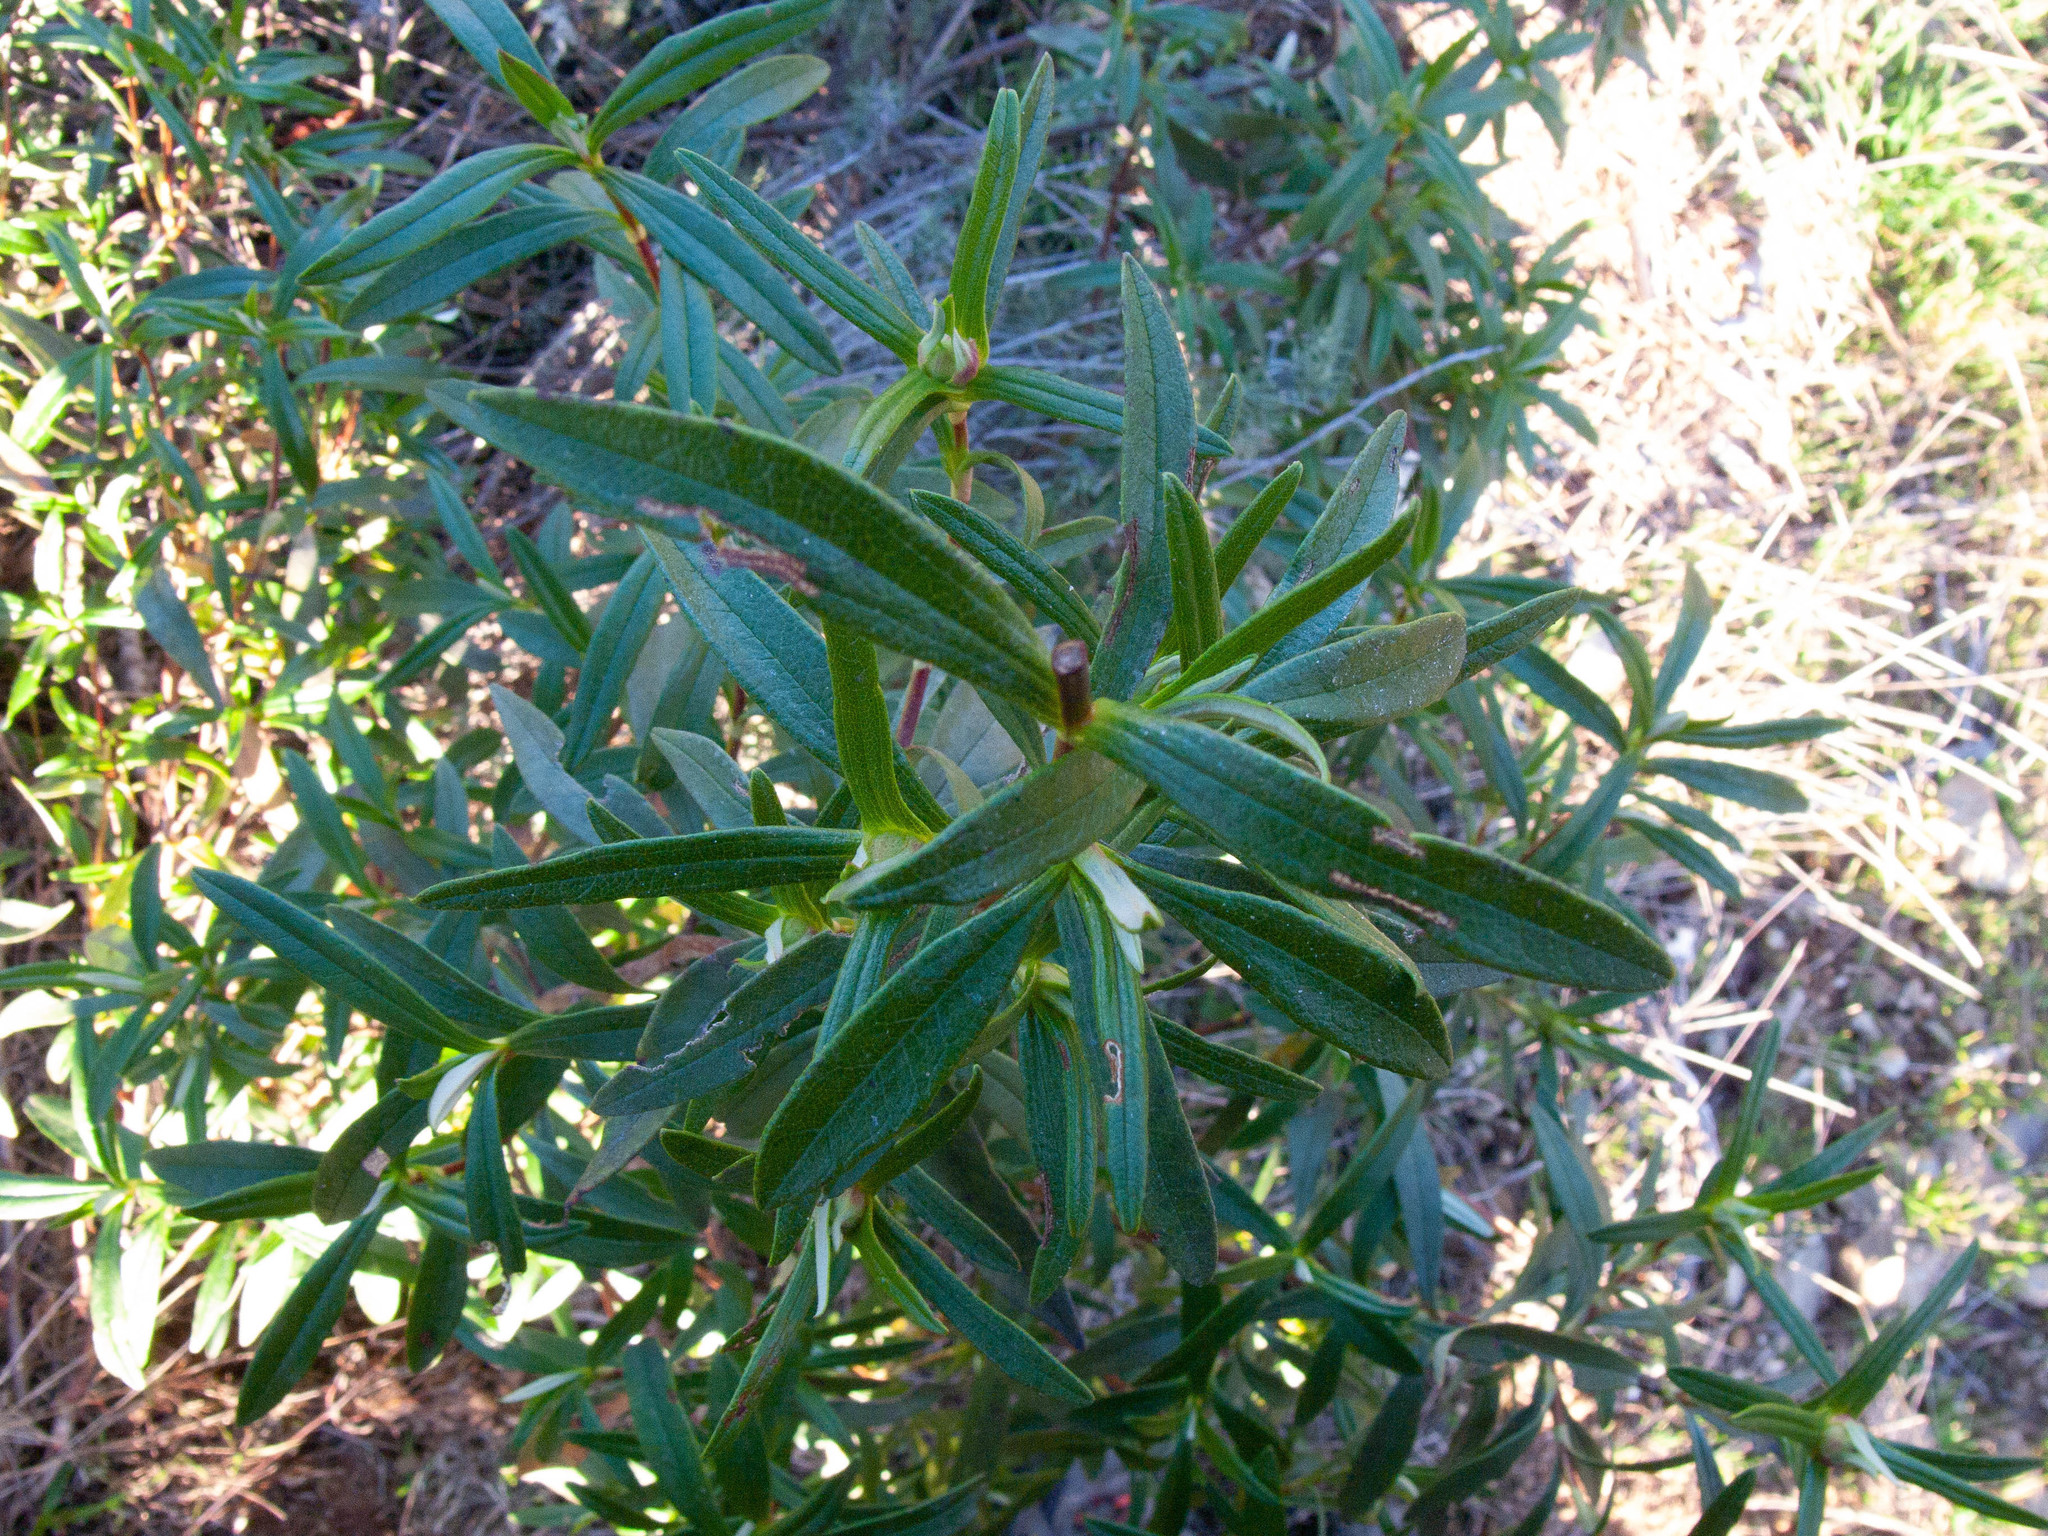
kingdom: Plantae
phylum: Tracheophyta
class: Magnoliopsida
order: Malvales
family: Cistaceae
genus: Cistus
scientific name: Cistus ladanifer
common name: Common gum cistus
